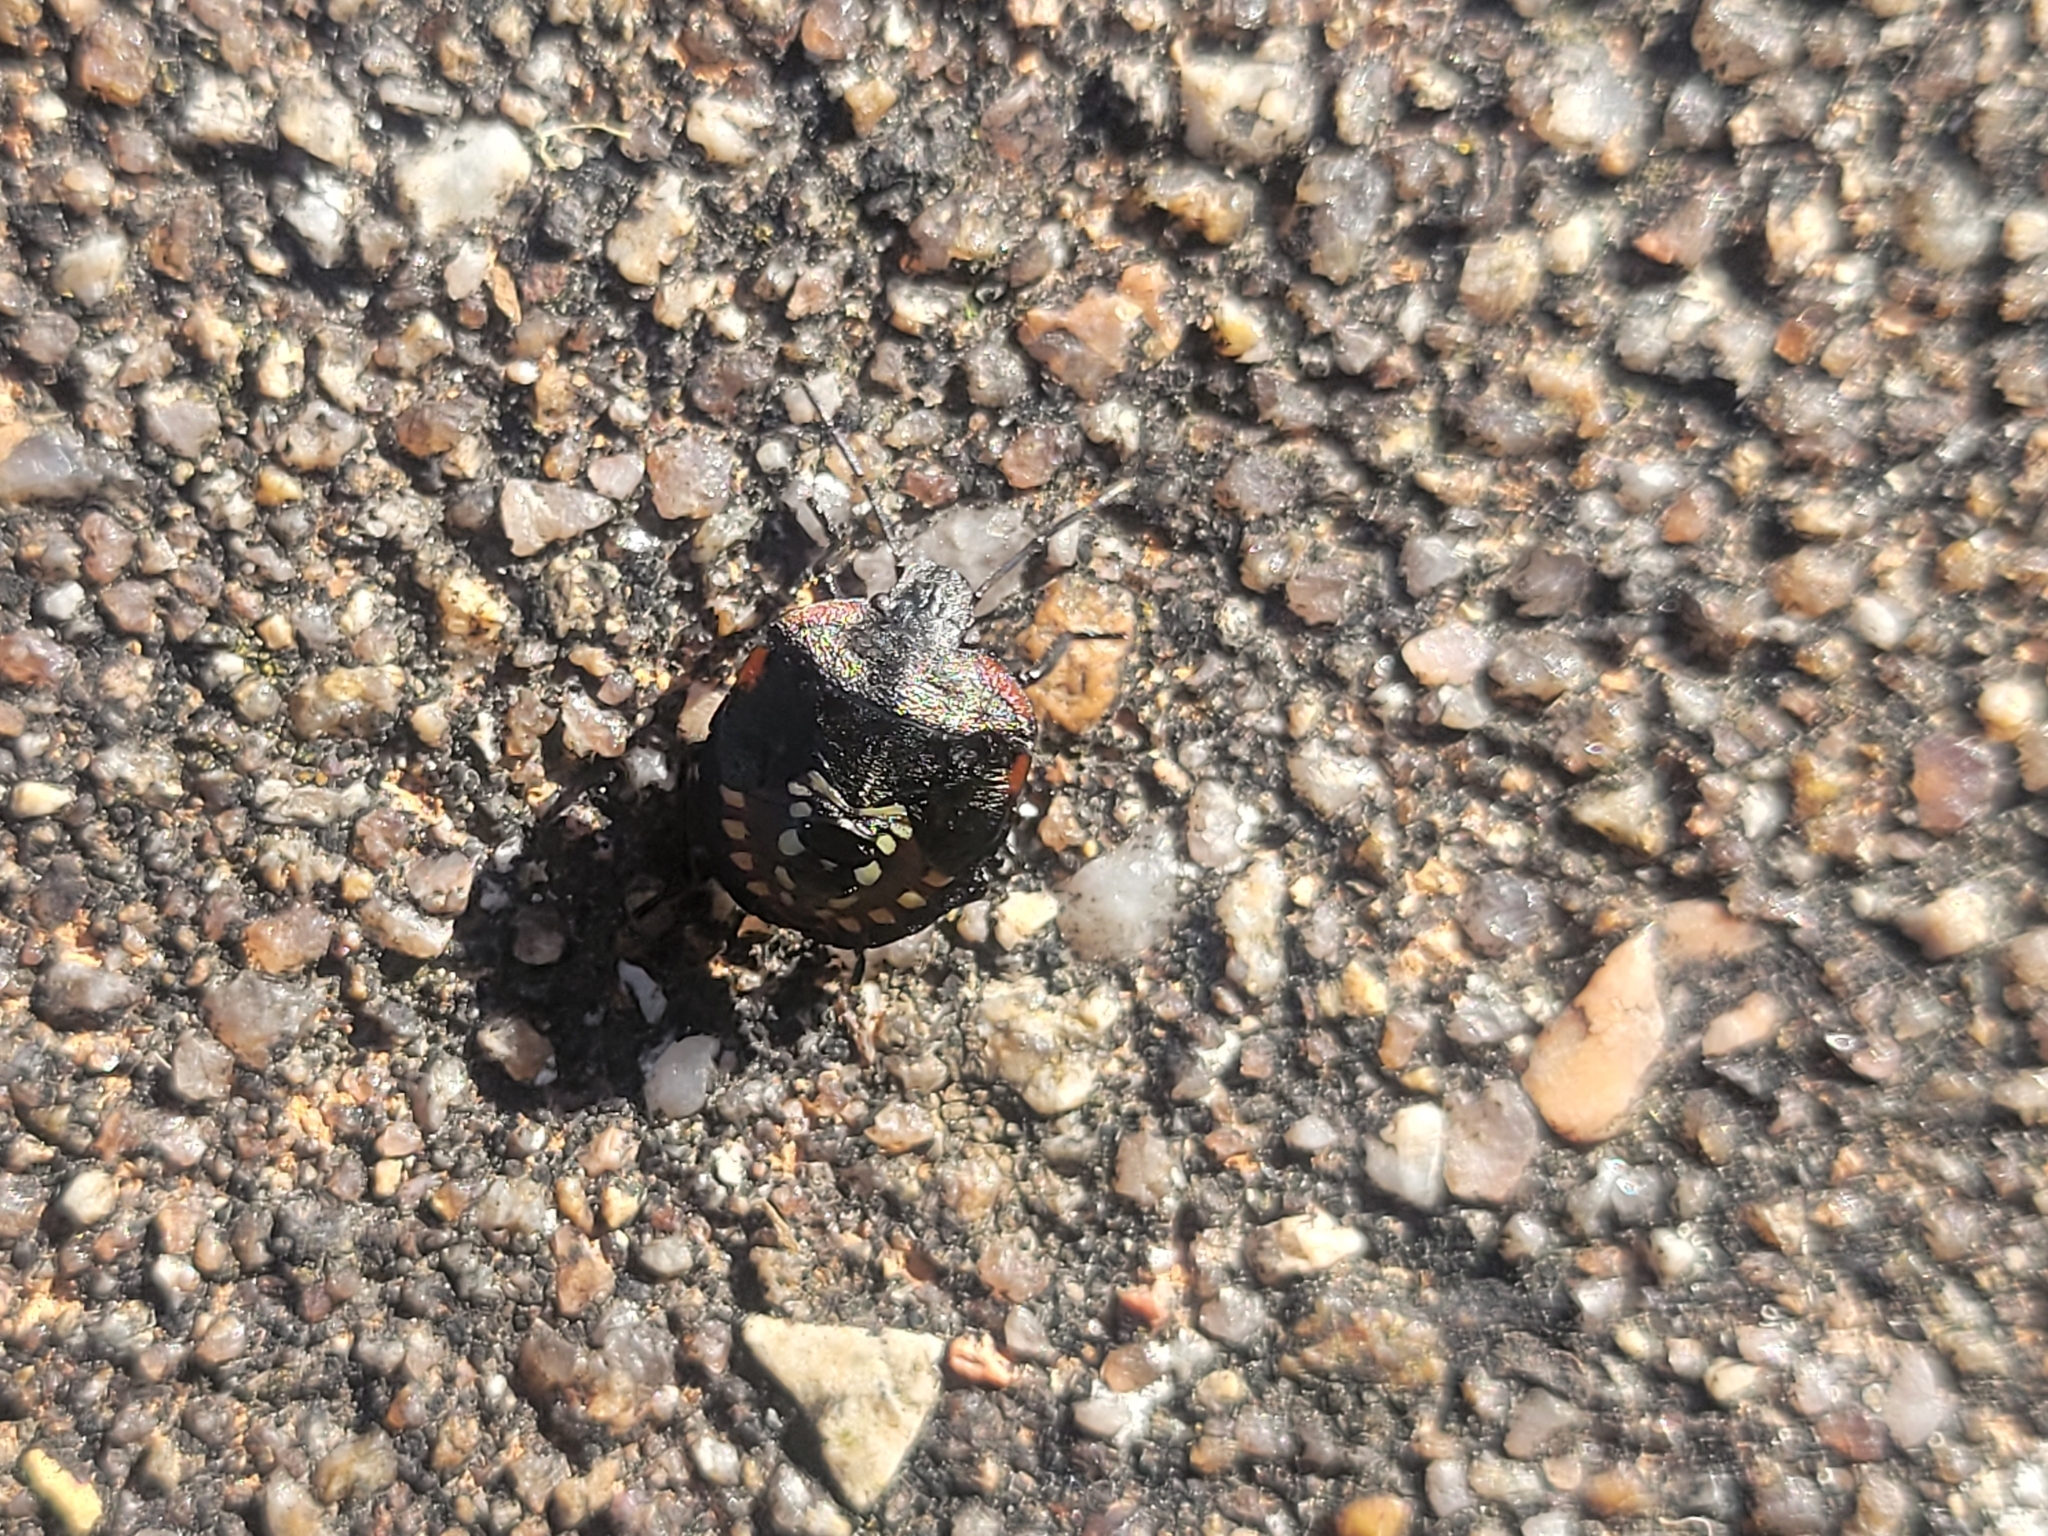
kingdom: Animalia
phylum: Arthropoda
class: Insecta
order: Hemiptera
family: Pentatomidae
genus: Nezara
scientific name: Nezara viridula
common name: Southern green stink bug
